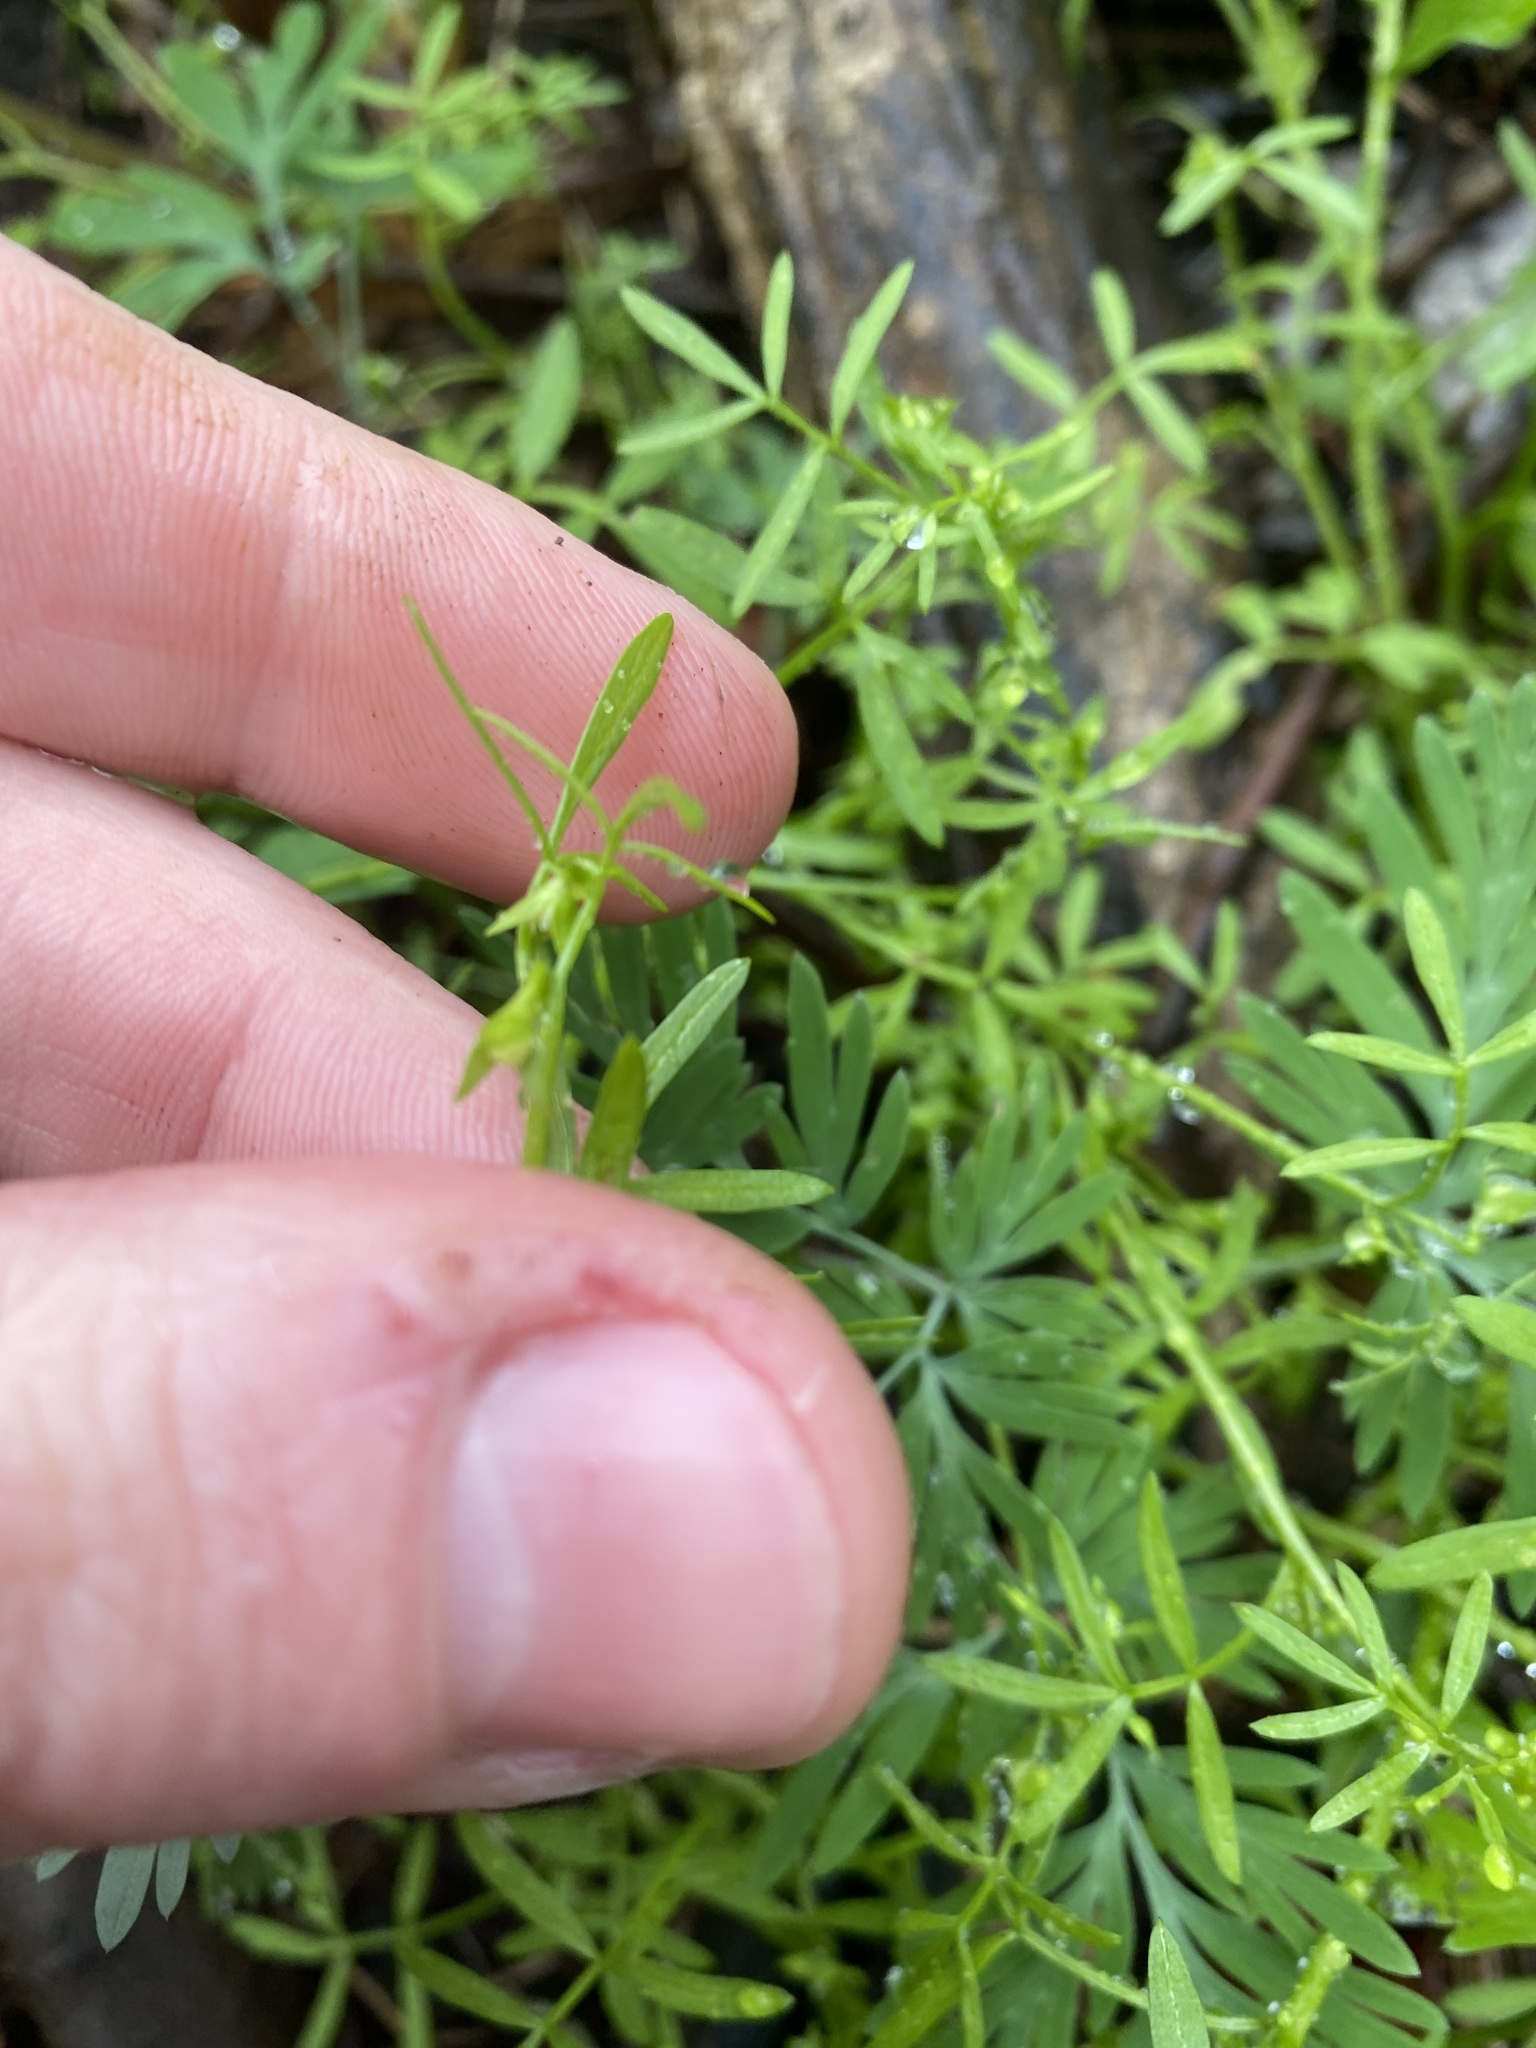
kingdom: Plantae
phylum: Tracheophyta
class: Magnoliopsida
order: Brassicales
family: Limnanthaceae
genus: Floerkea
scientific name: Floerkea proserpinacoides
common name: False mermaid
